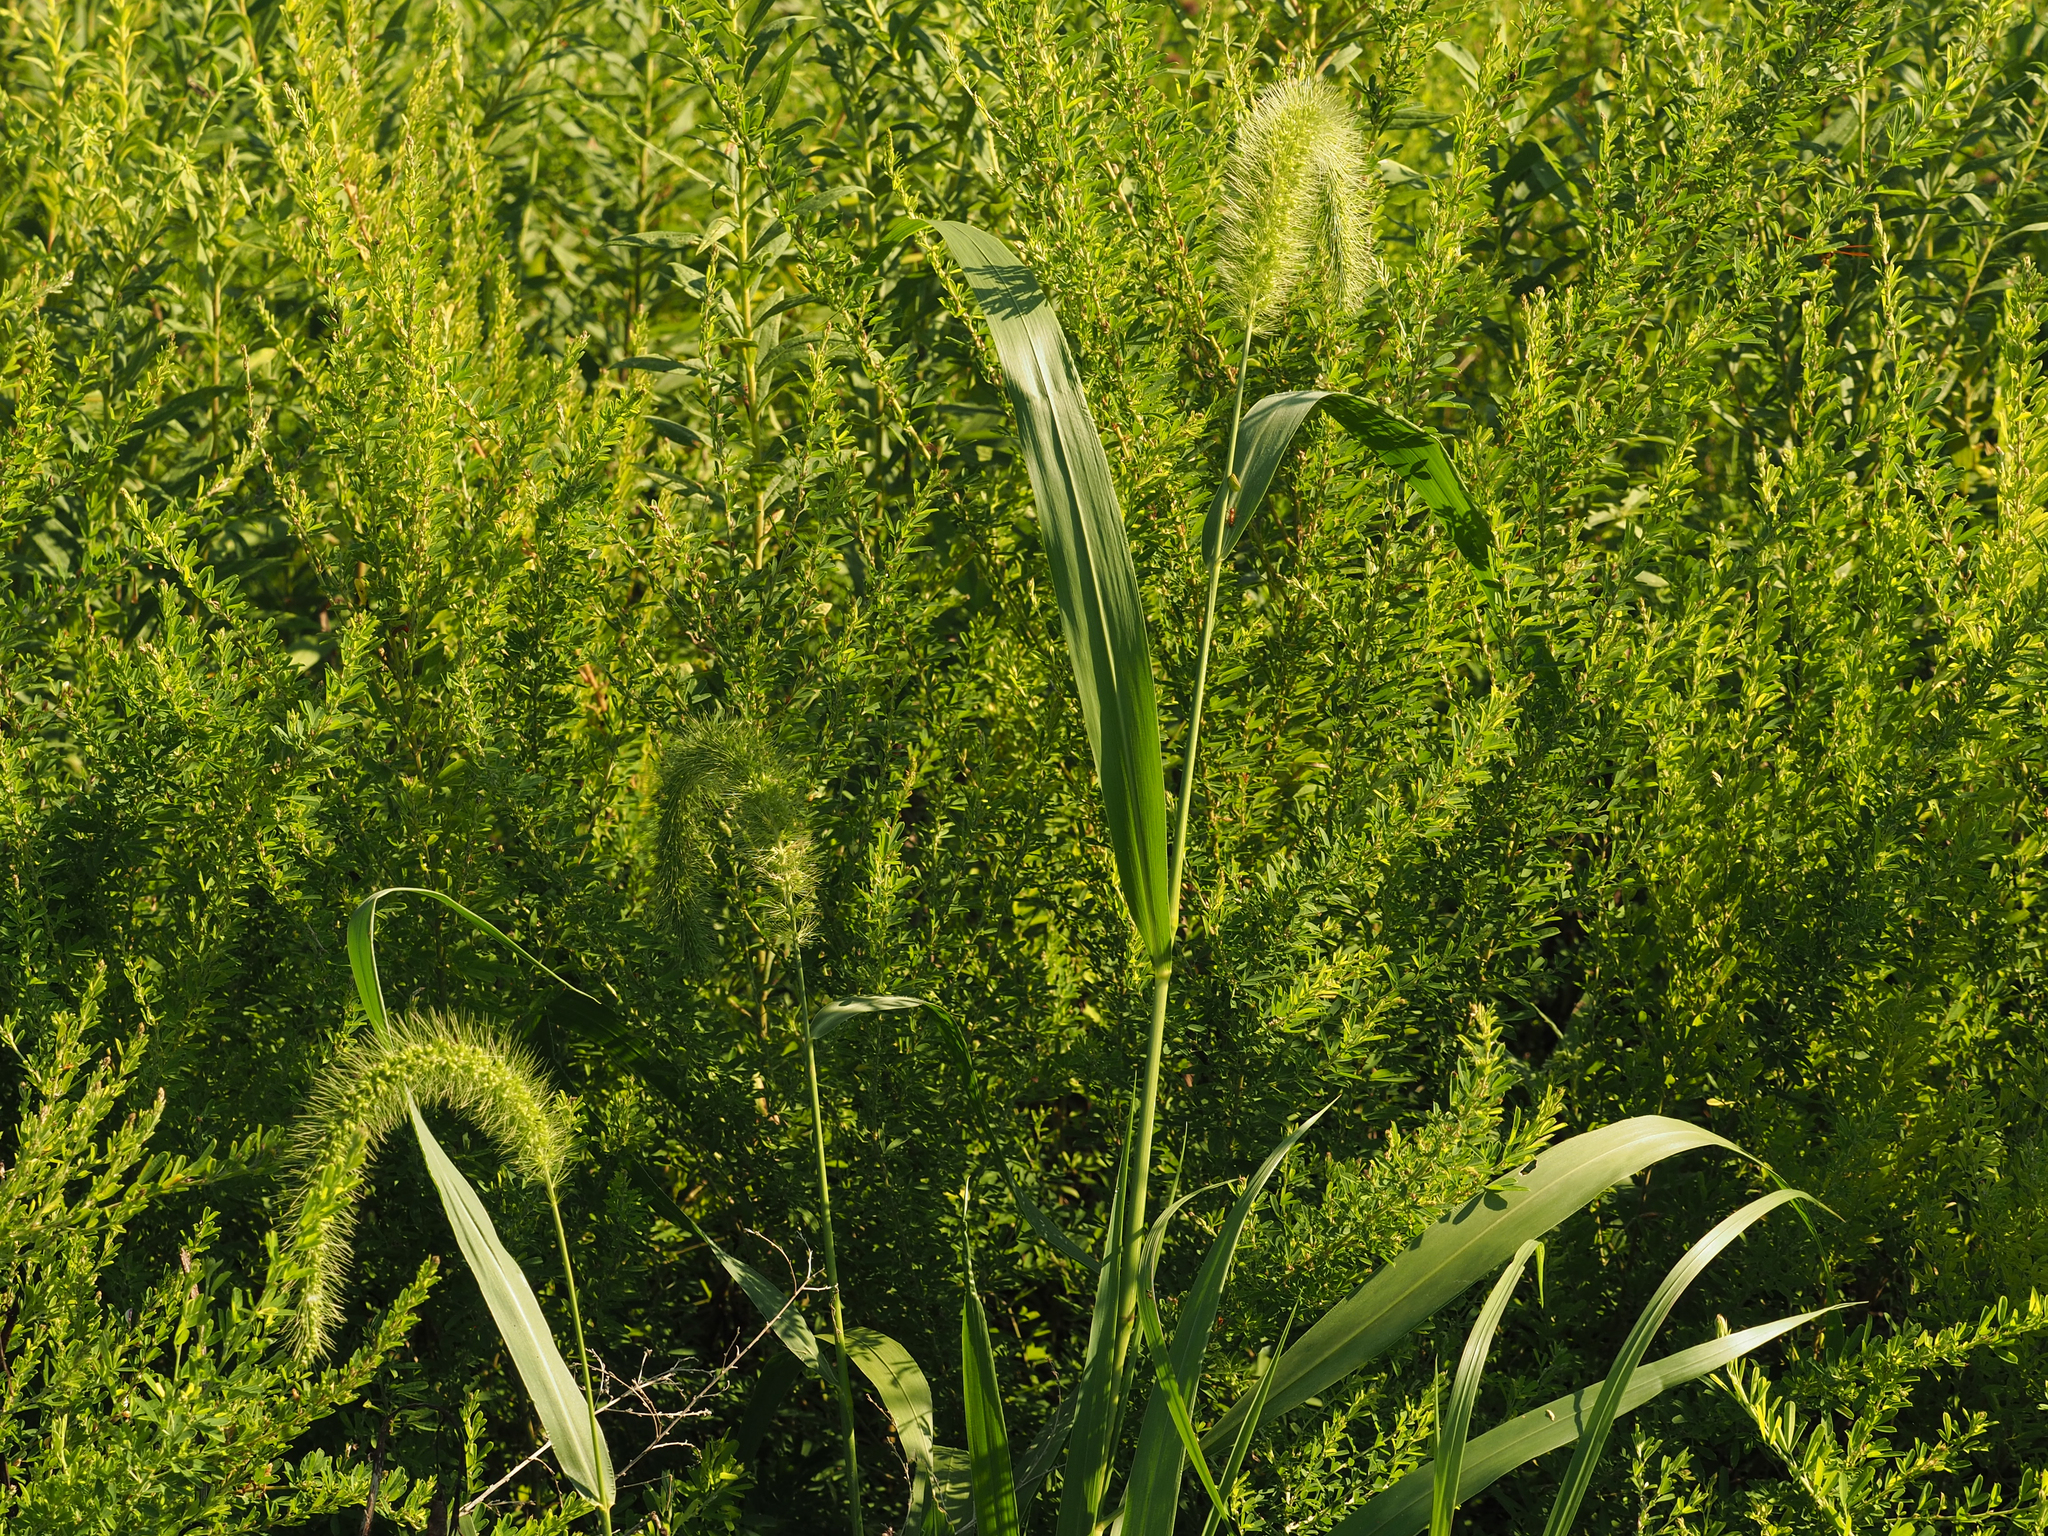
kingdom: Plantae
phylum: Tracheophyta
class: Liliopsida
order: Poales
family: Poaceae
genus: Setaria
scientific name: Setaria faberi
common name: Nodding bristle-grass
